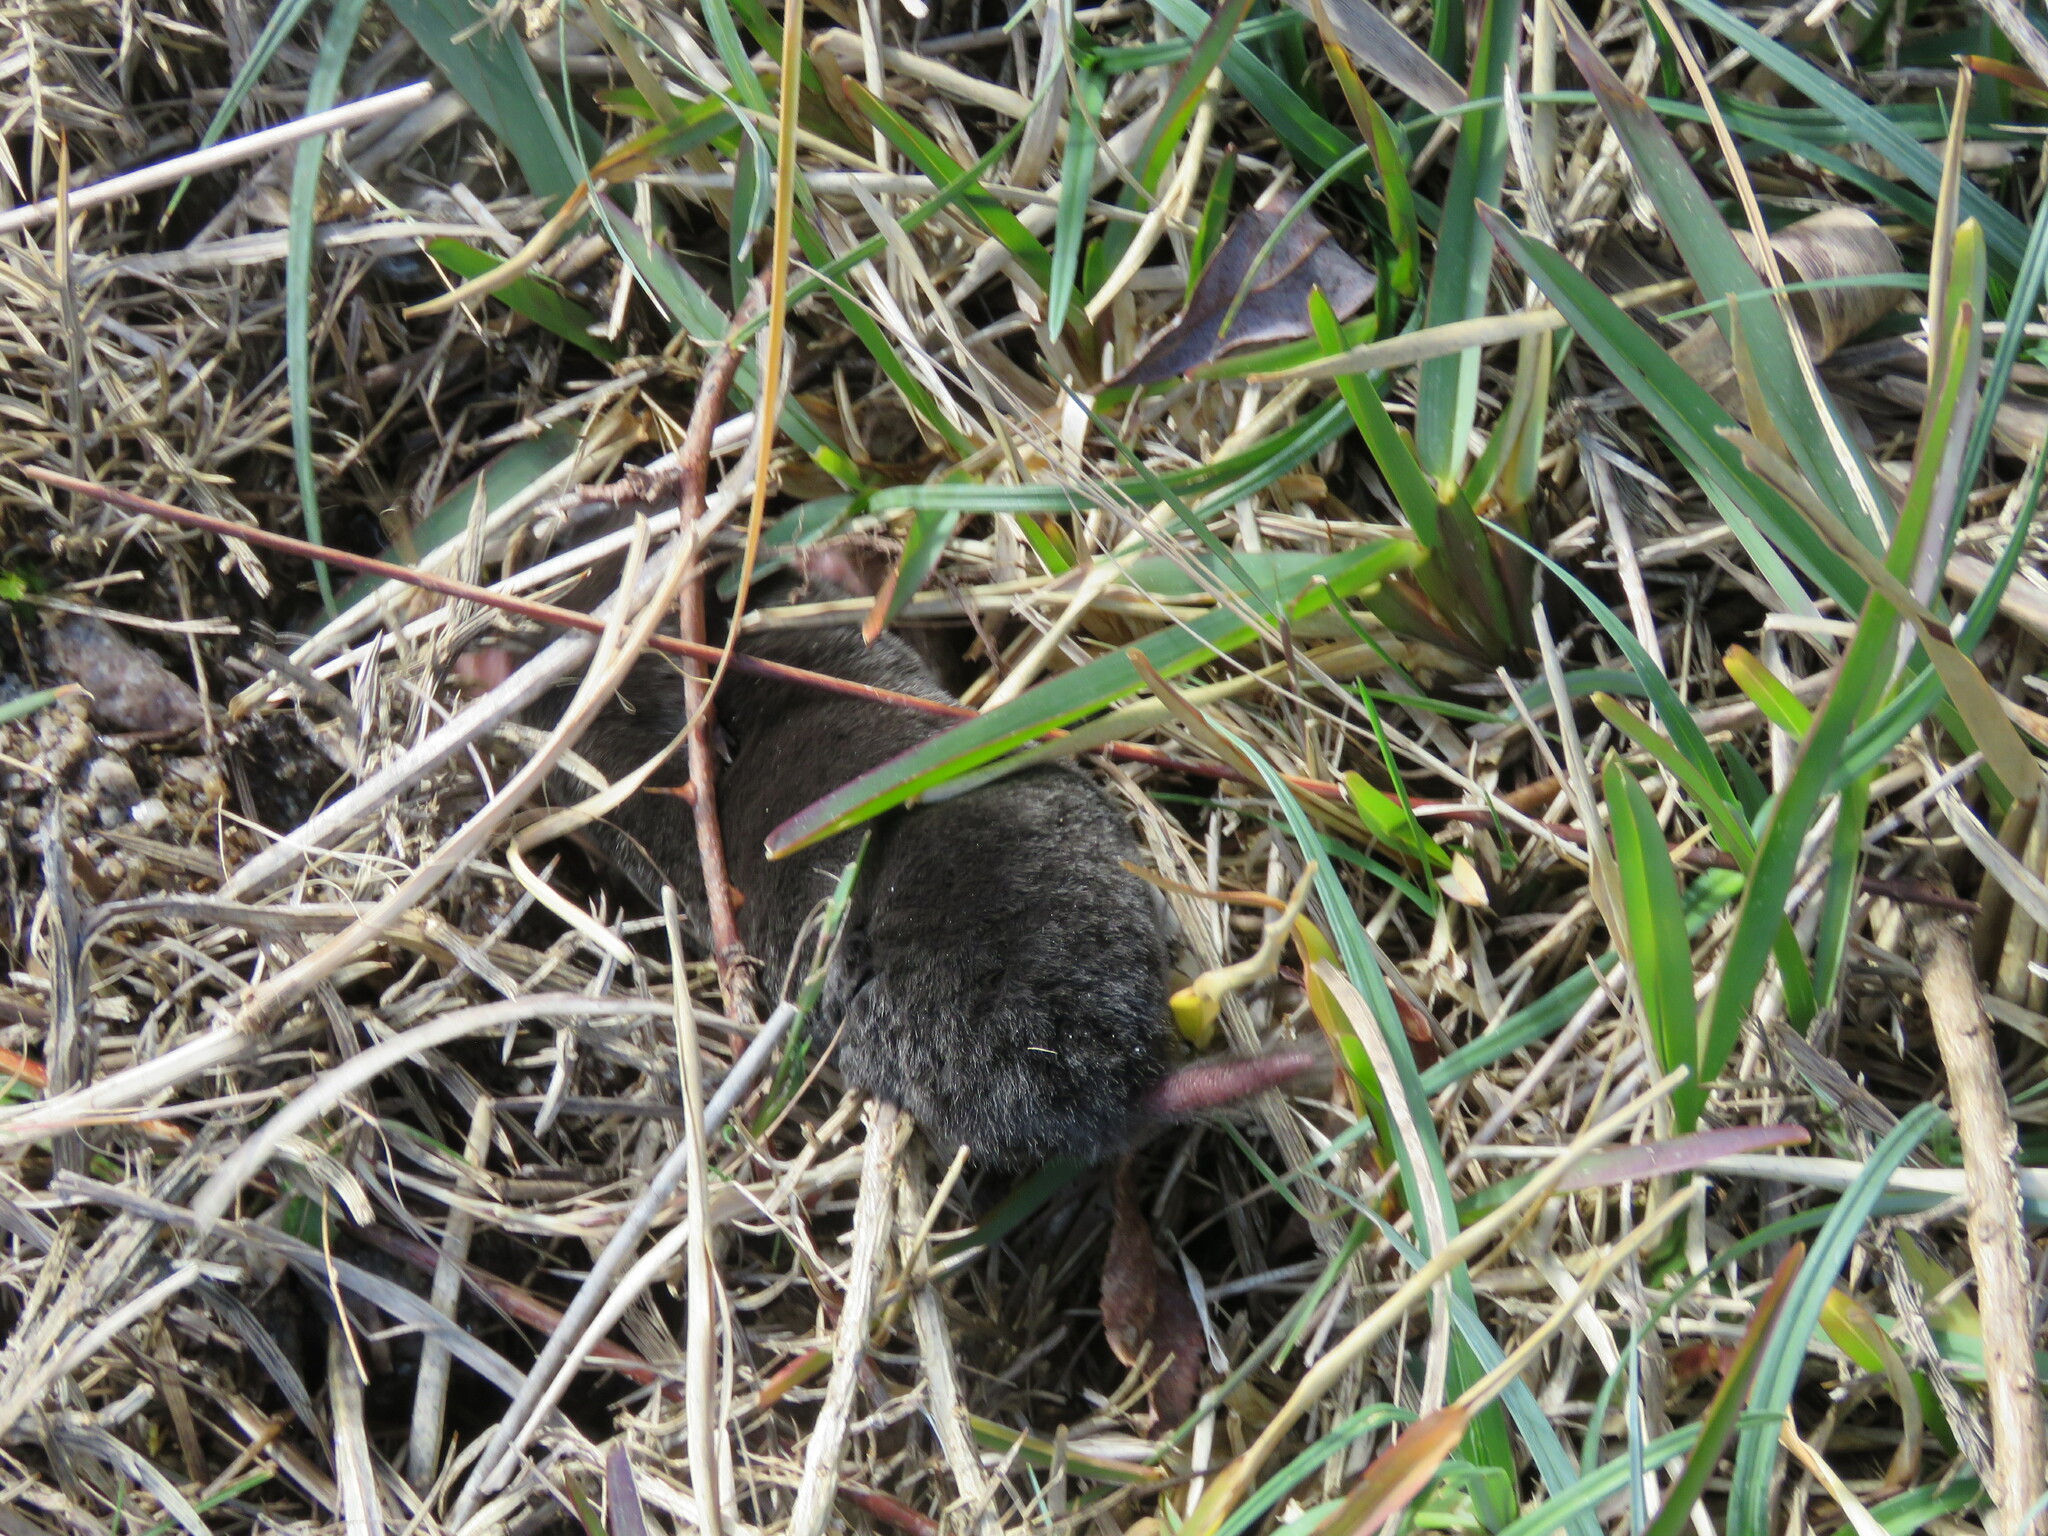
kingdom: Animalia
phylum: Chordata
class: Mammalia
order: Soricomorpha
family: Talpidae
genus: Talpa
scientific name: Talpa occidentalis
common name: Iberian mole
